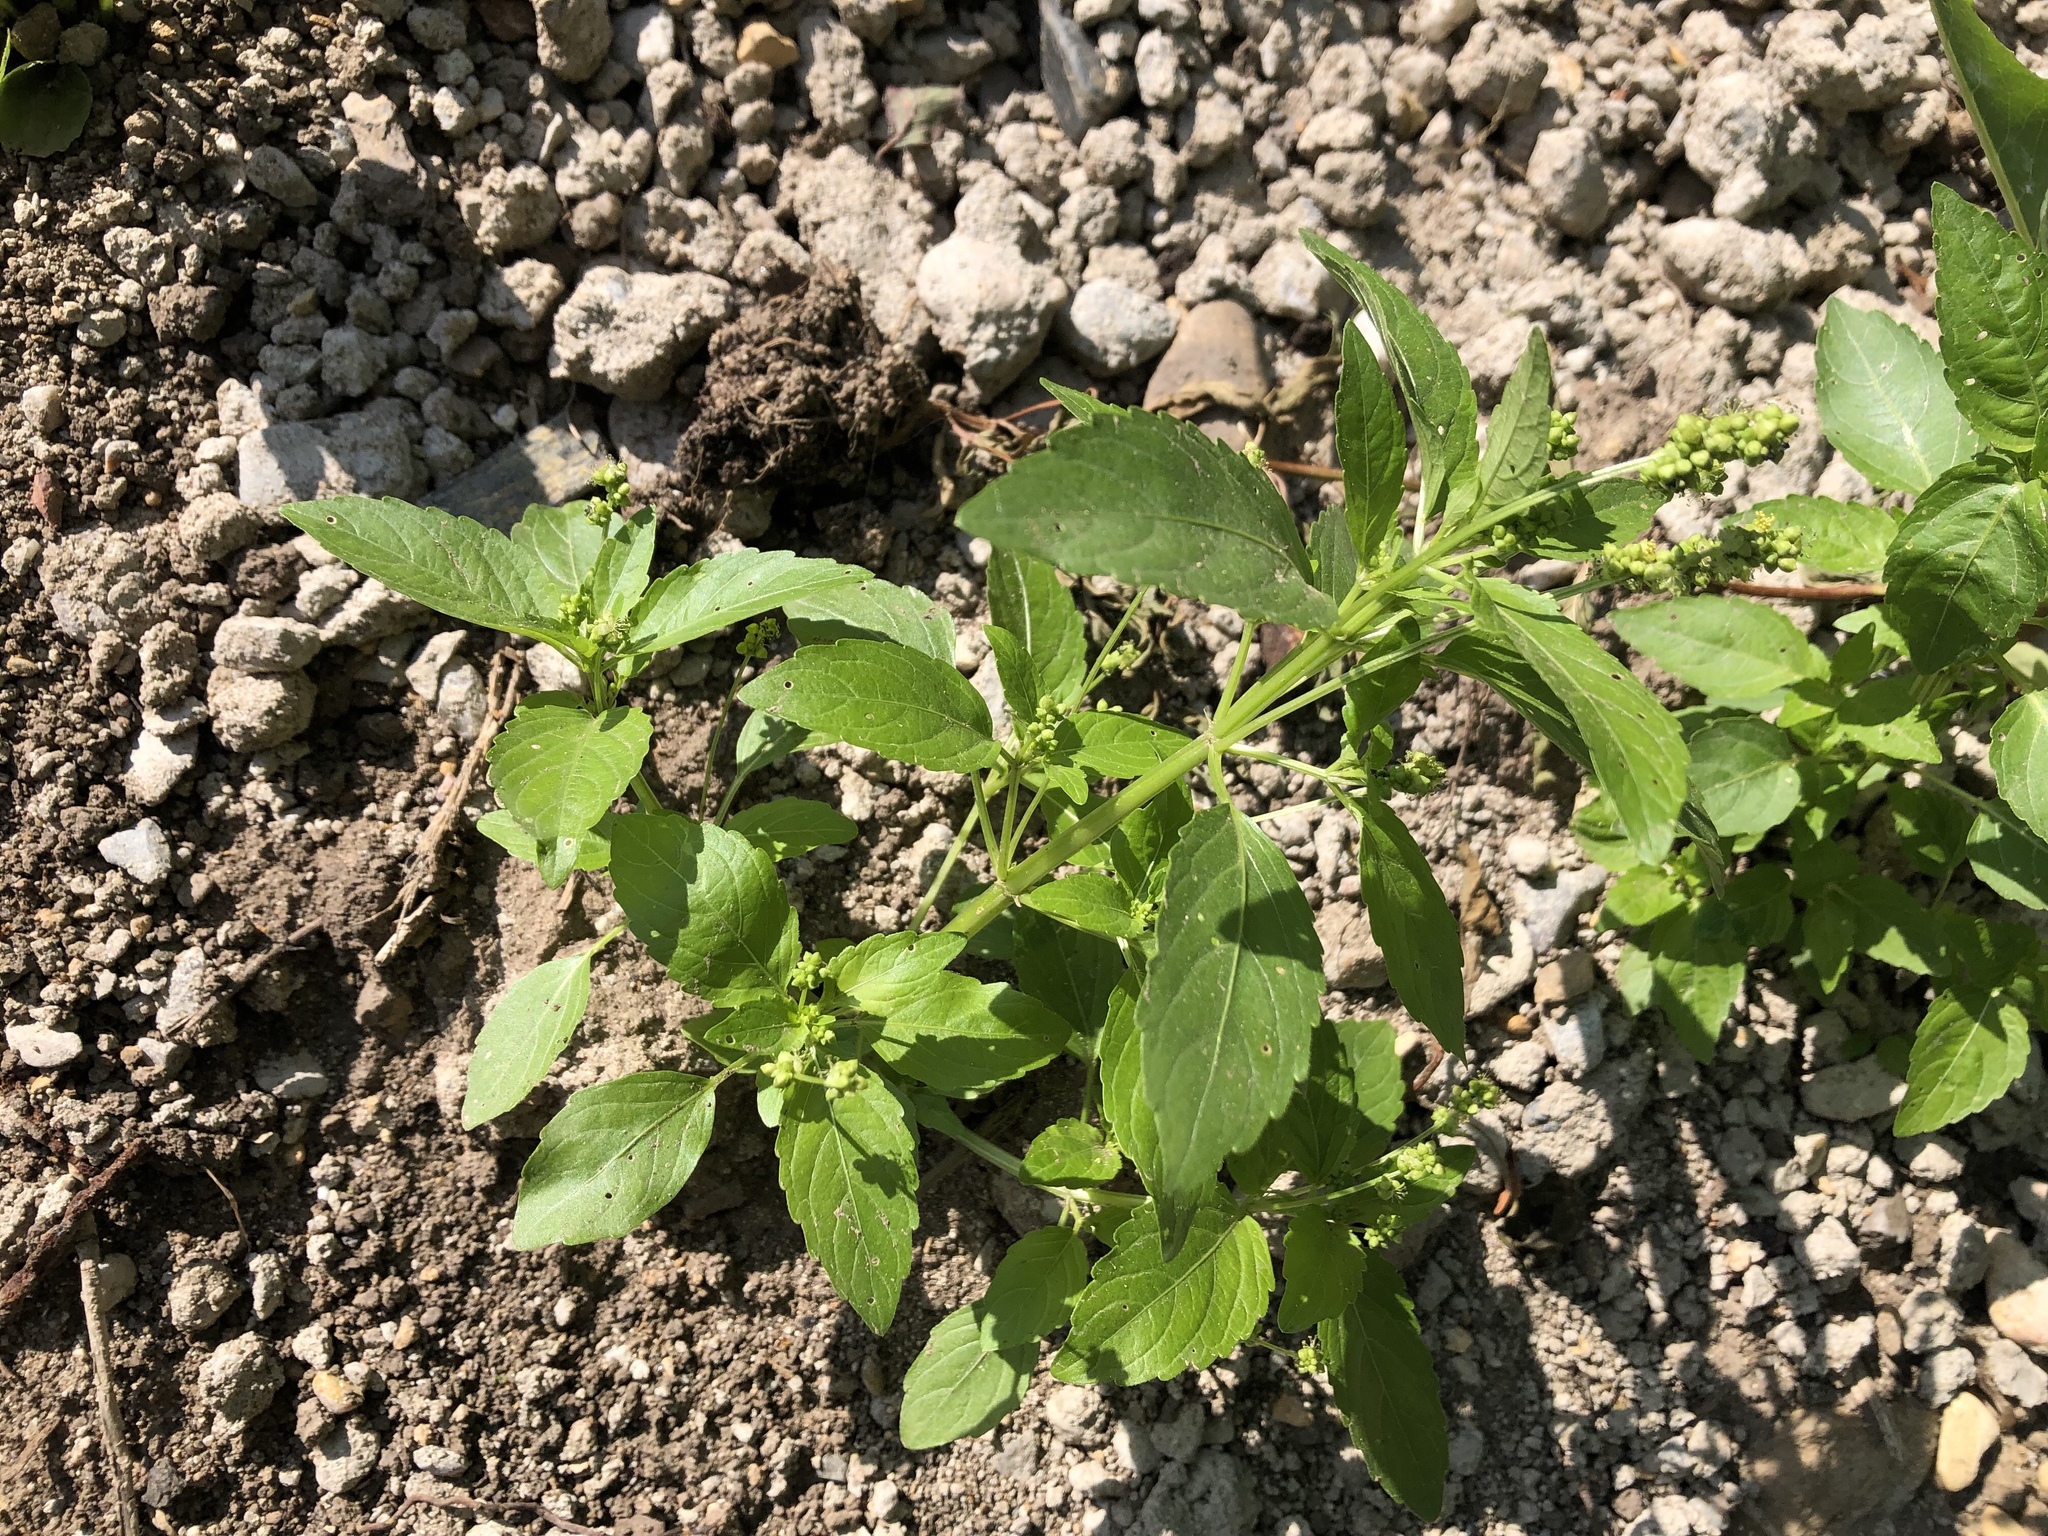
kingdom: Plantae
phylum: Tracheophyta
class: Magnoliopsida
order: Malpighiales
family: Euphorbiaceae
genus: Mercurialis
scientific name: Mercurialis annua
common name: Annual mercury
